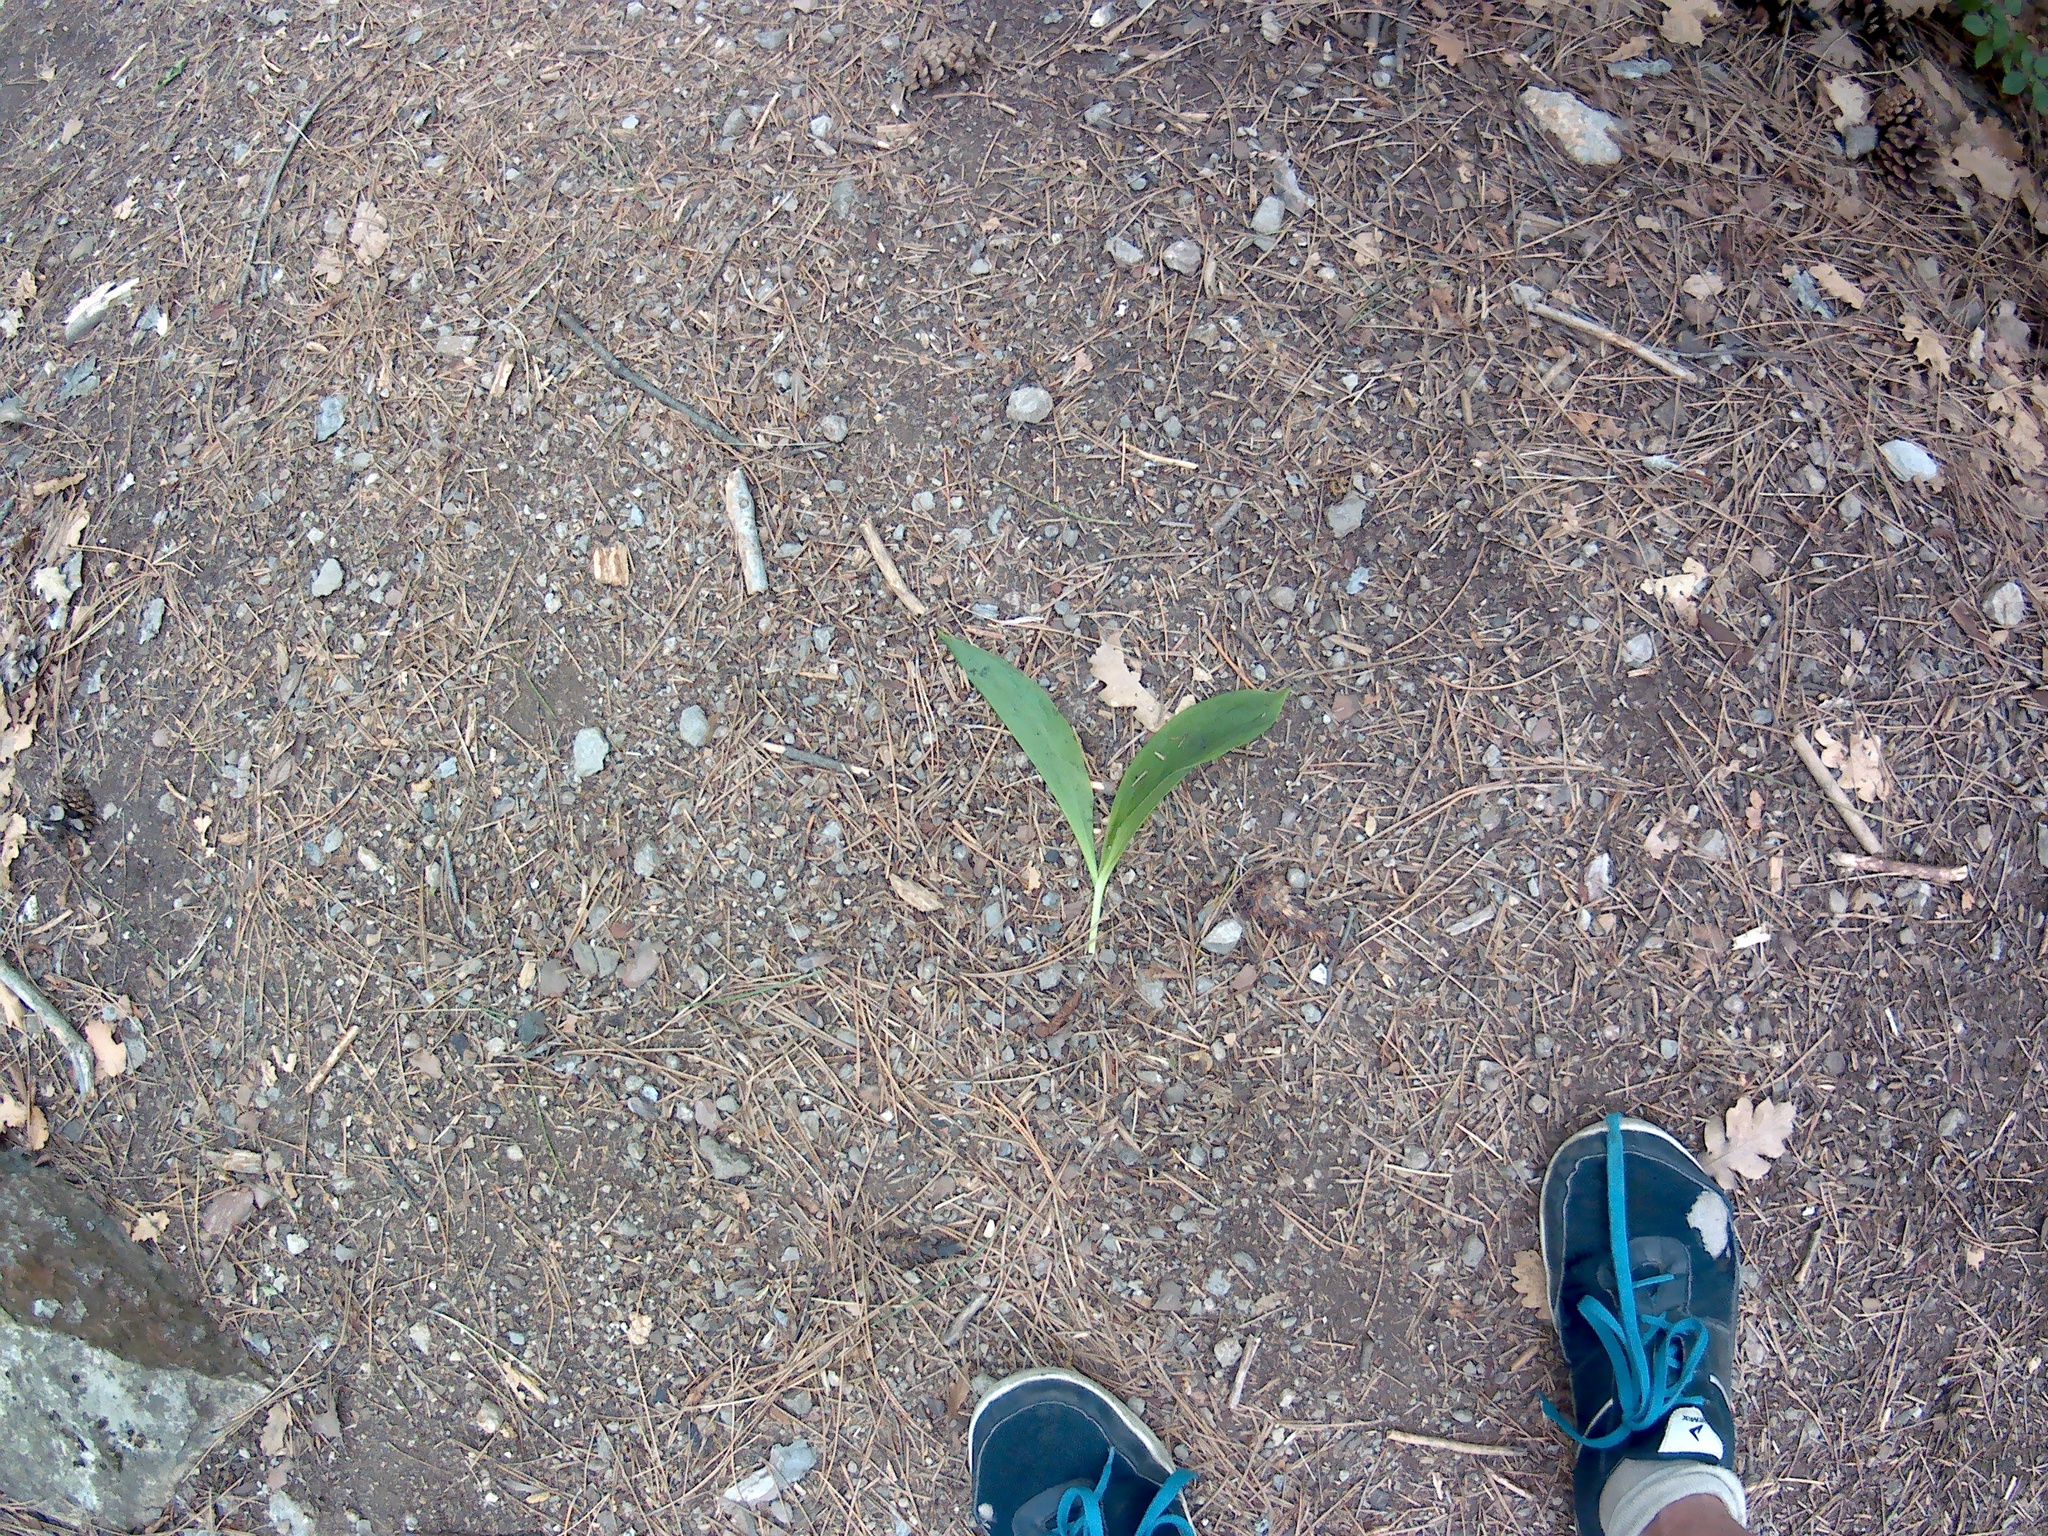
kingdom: Plantae
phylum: Tracheophyta
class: Liliopsida
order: Asparagales
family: Asparagaceae
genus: Convallaria
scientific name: Convallaria majalis
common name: Lily-of-the-valley
